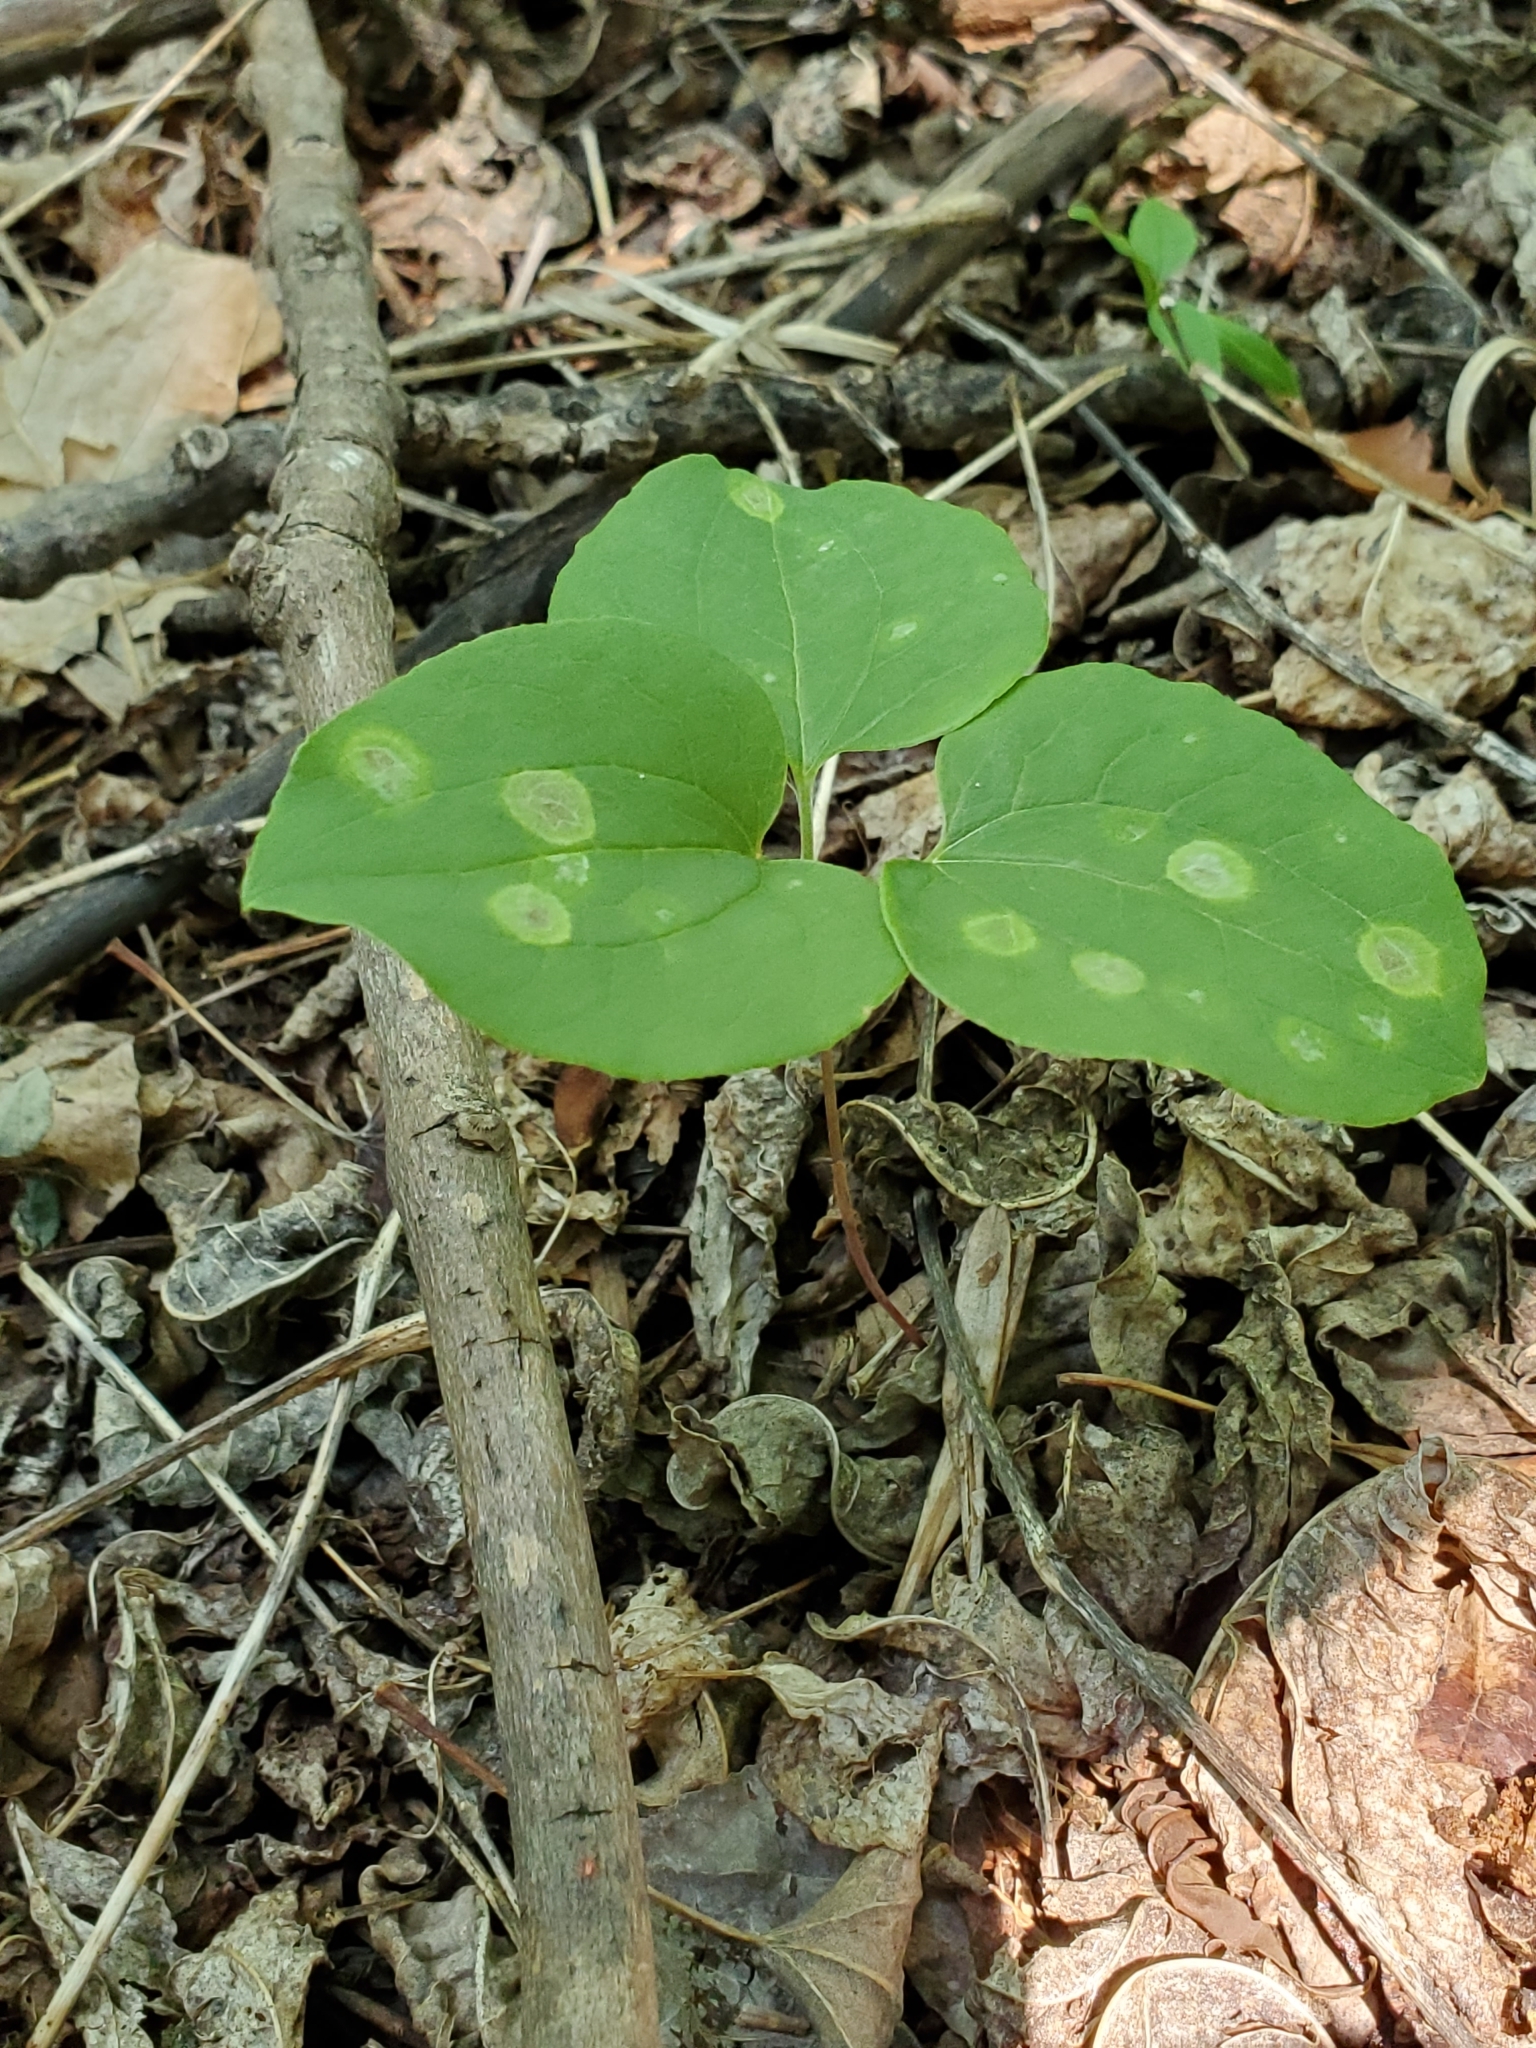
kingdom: Plantae
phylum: Tracheophyta
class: Liliopsida
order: Liliales
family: Smilacaceae
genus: Smilax
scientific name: Smilax lasioneura
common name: Blue ridge carrionflower
